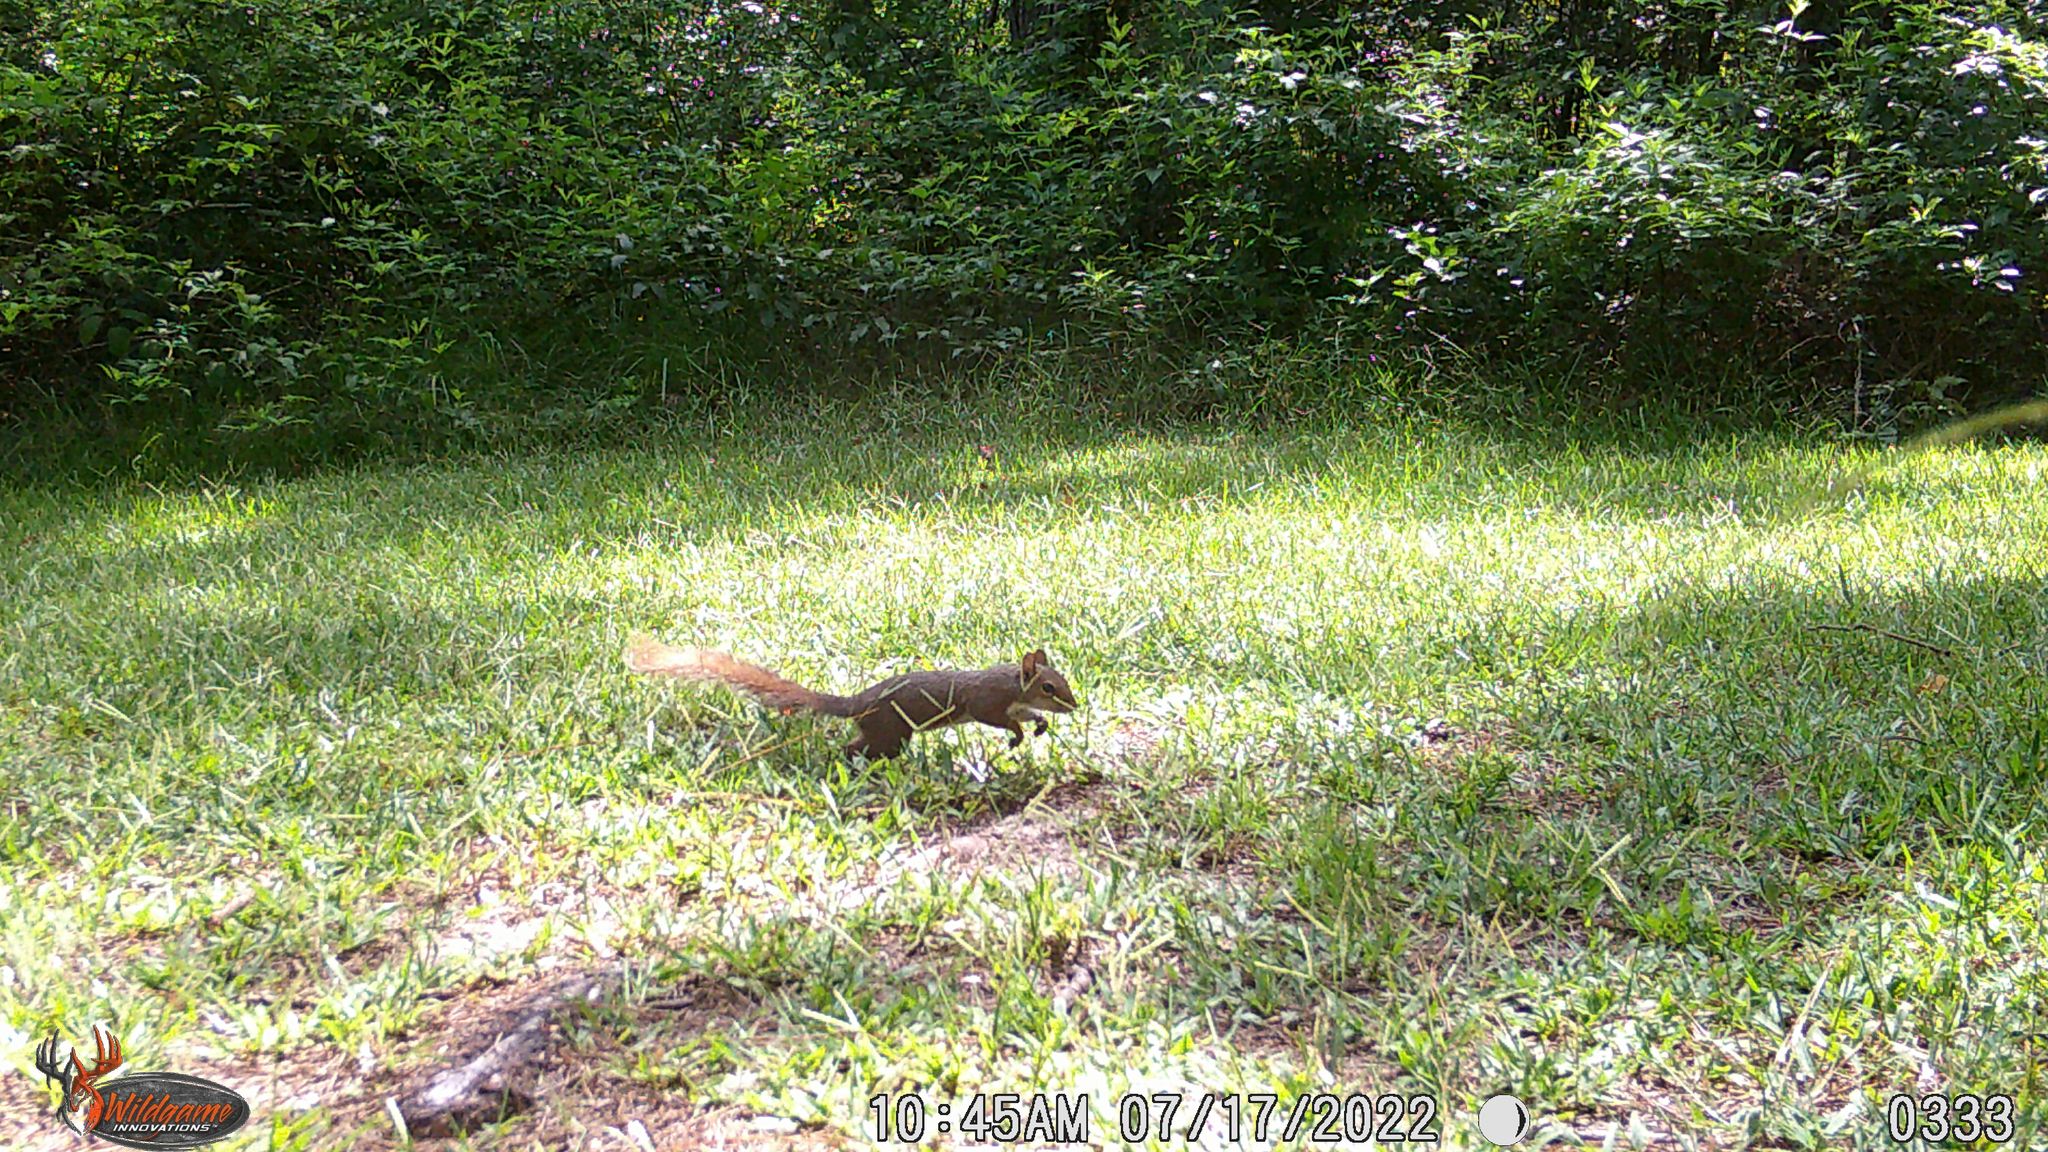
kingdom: Animalia
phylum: Chordata
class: Mammalia
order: Rodentia
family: Sciuridae
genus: Sciurus
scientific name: Sciurus carolinensis
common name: Eastern gray squirrel
